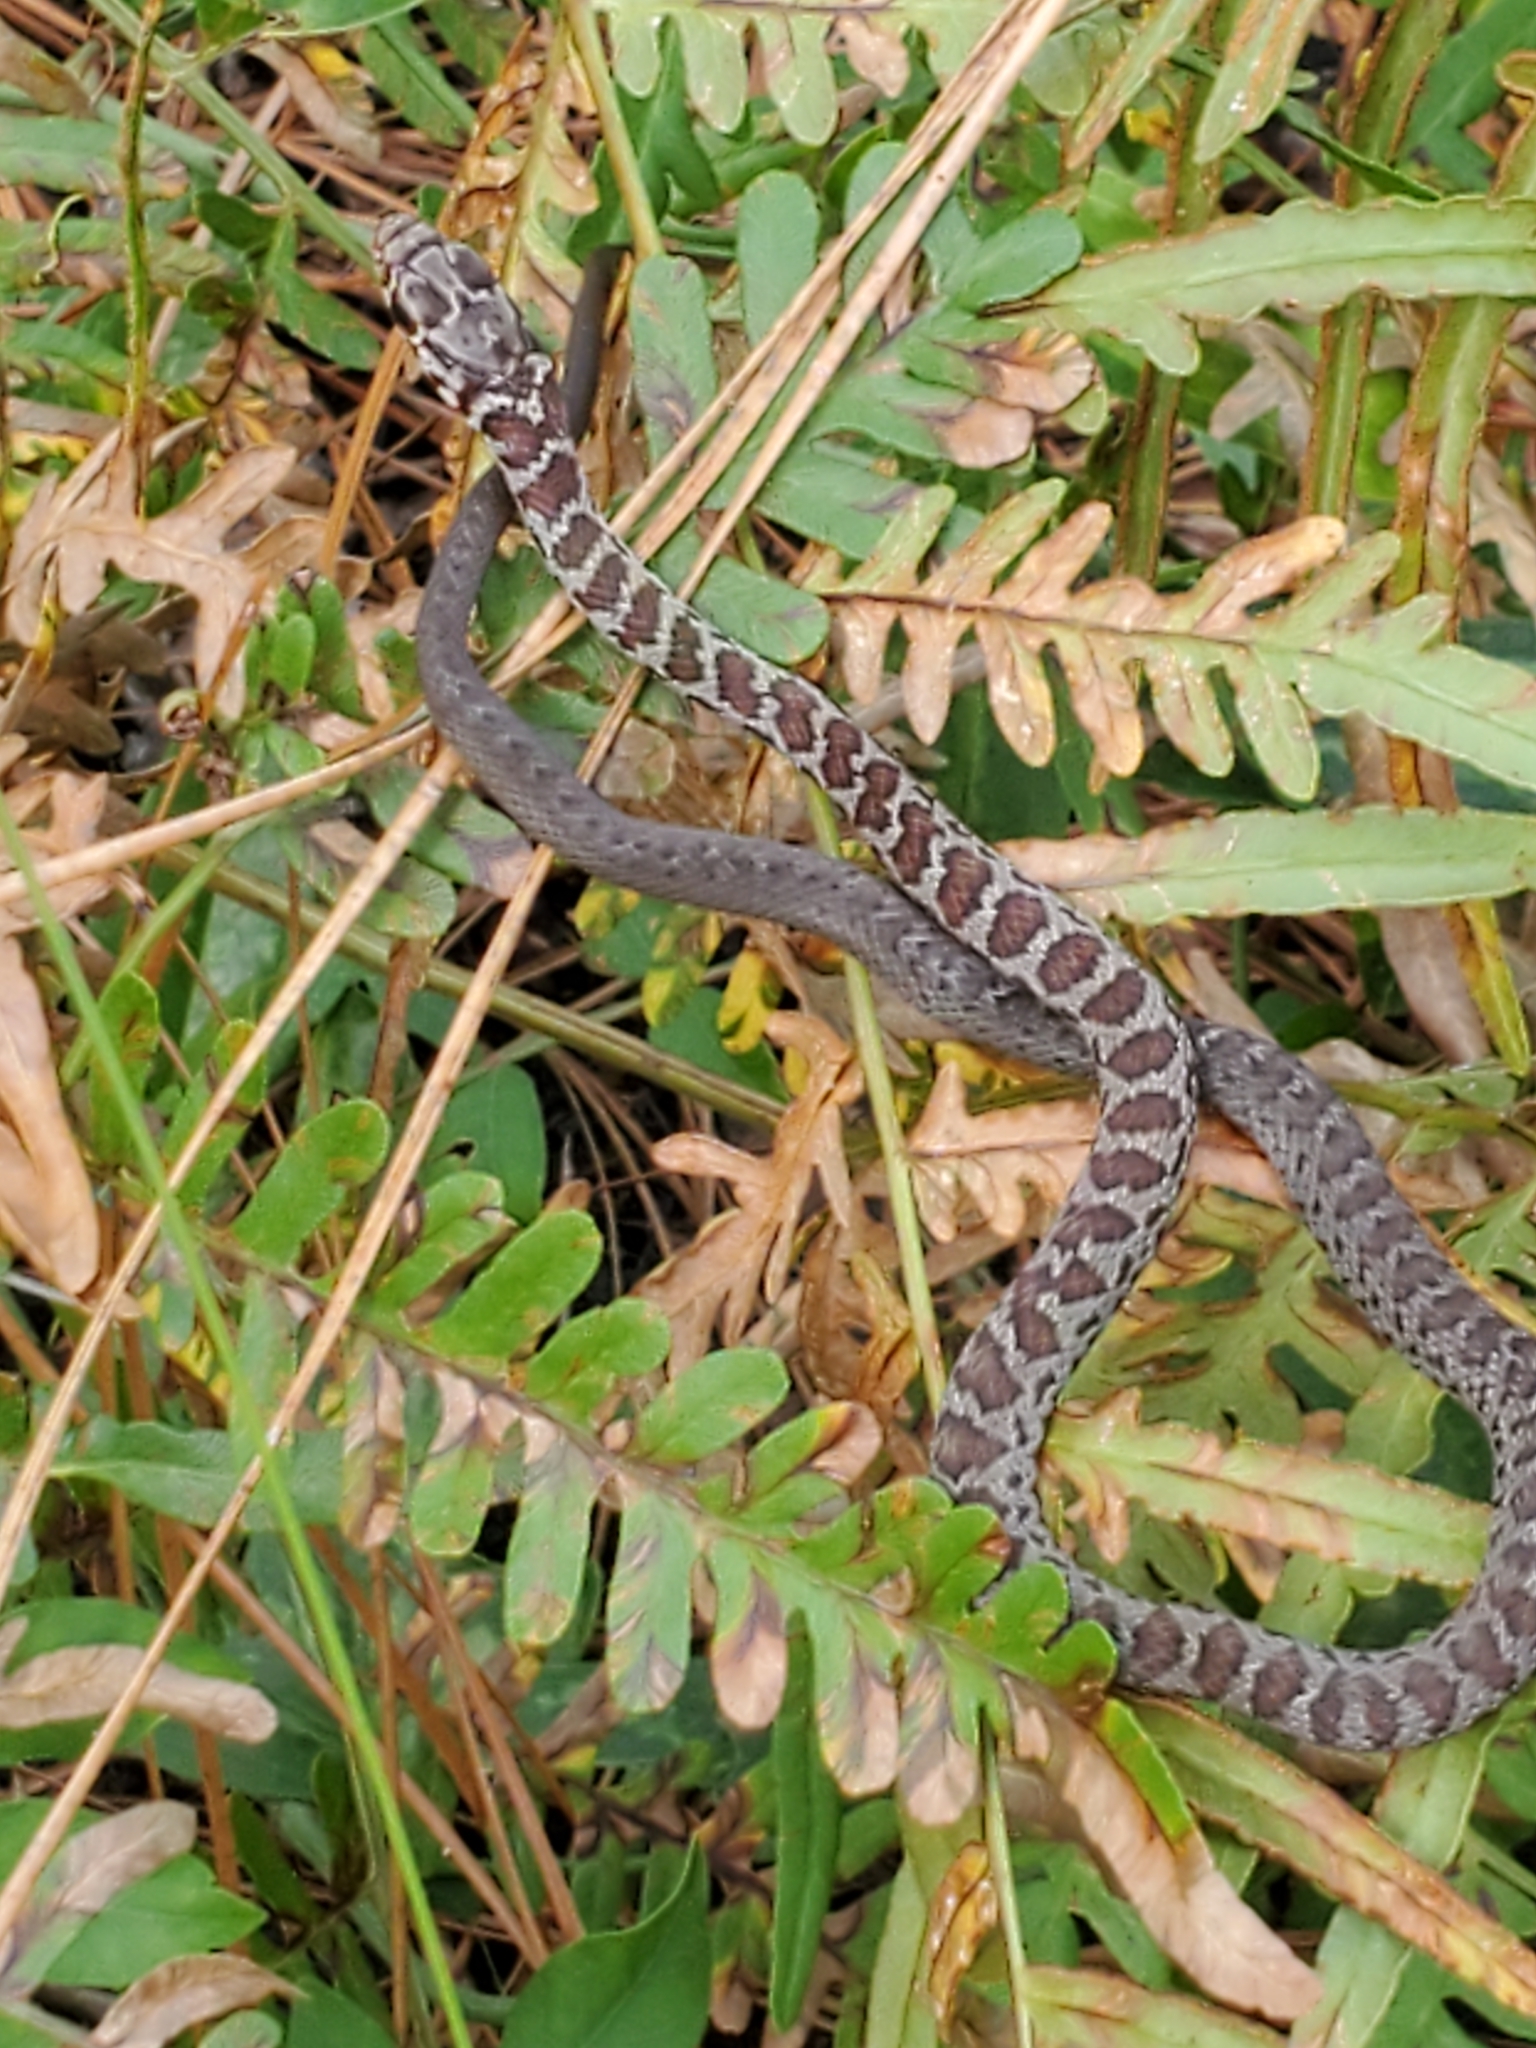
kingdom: Animalia
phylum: Chordata
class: Squamata
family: Colubridae
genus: Coluber
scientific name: Coluber constrictor
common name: Eastern racer
